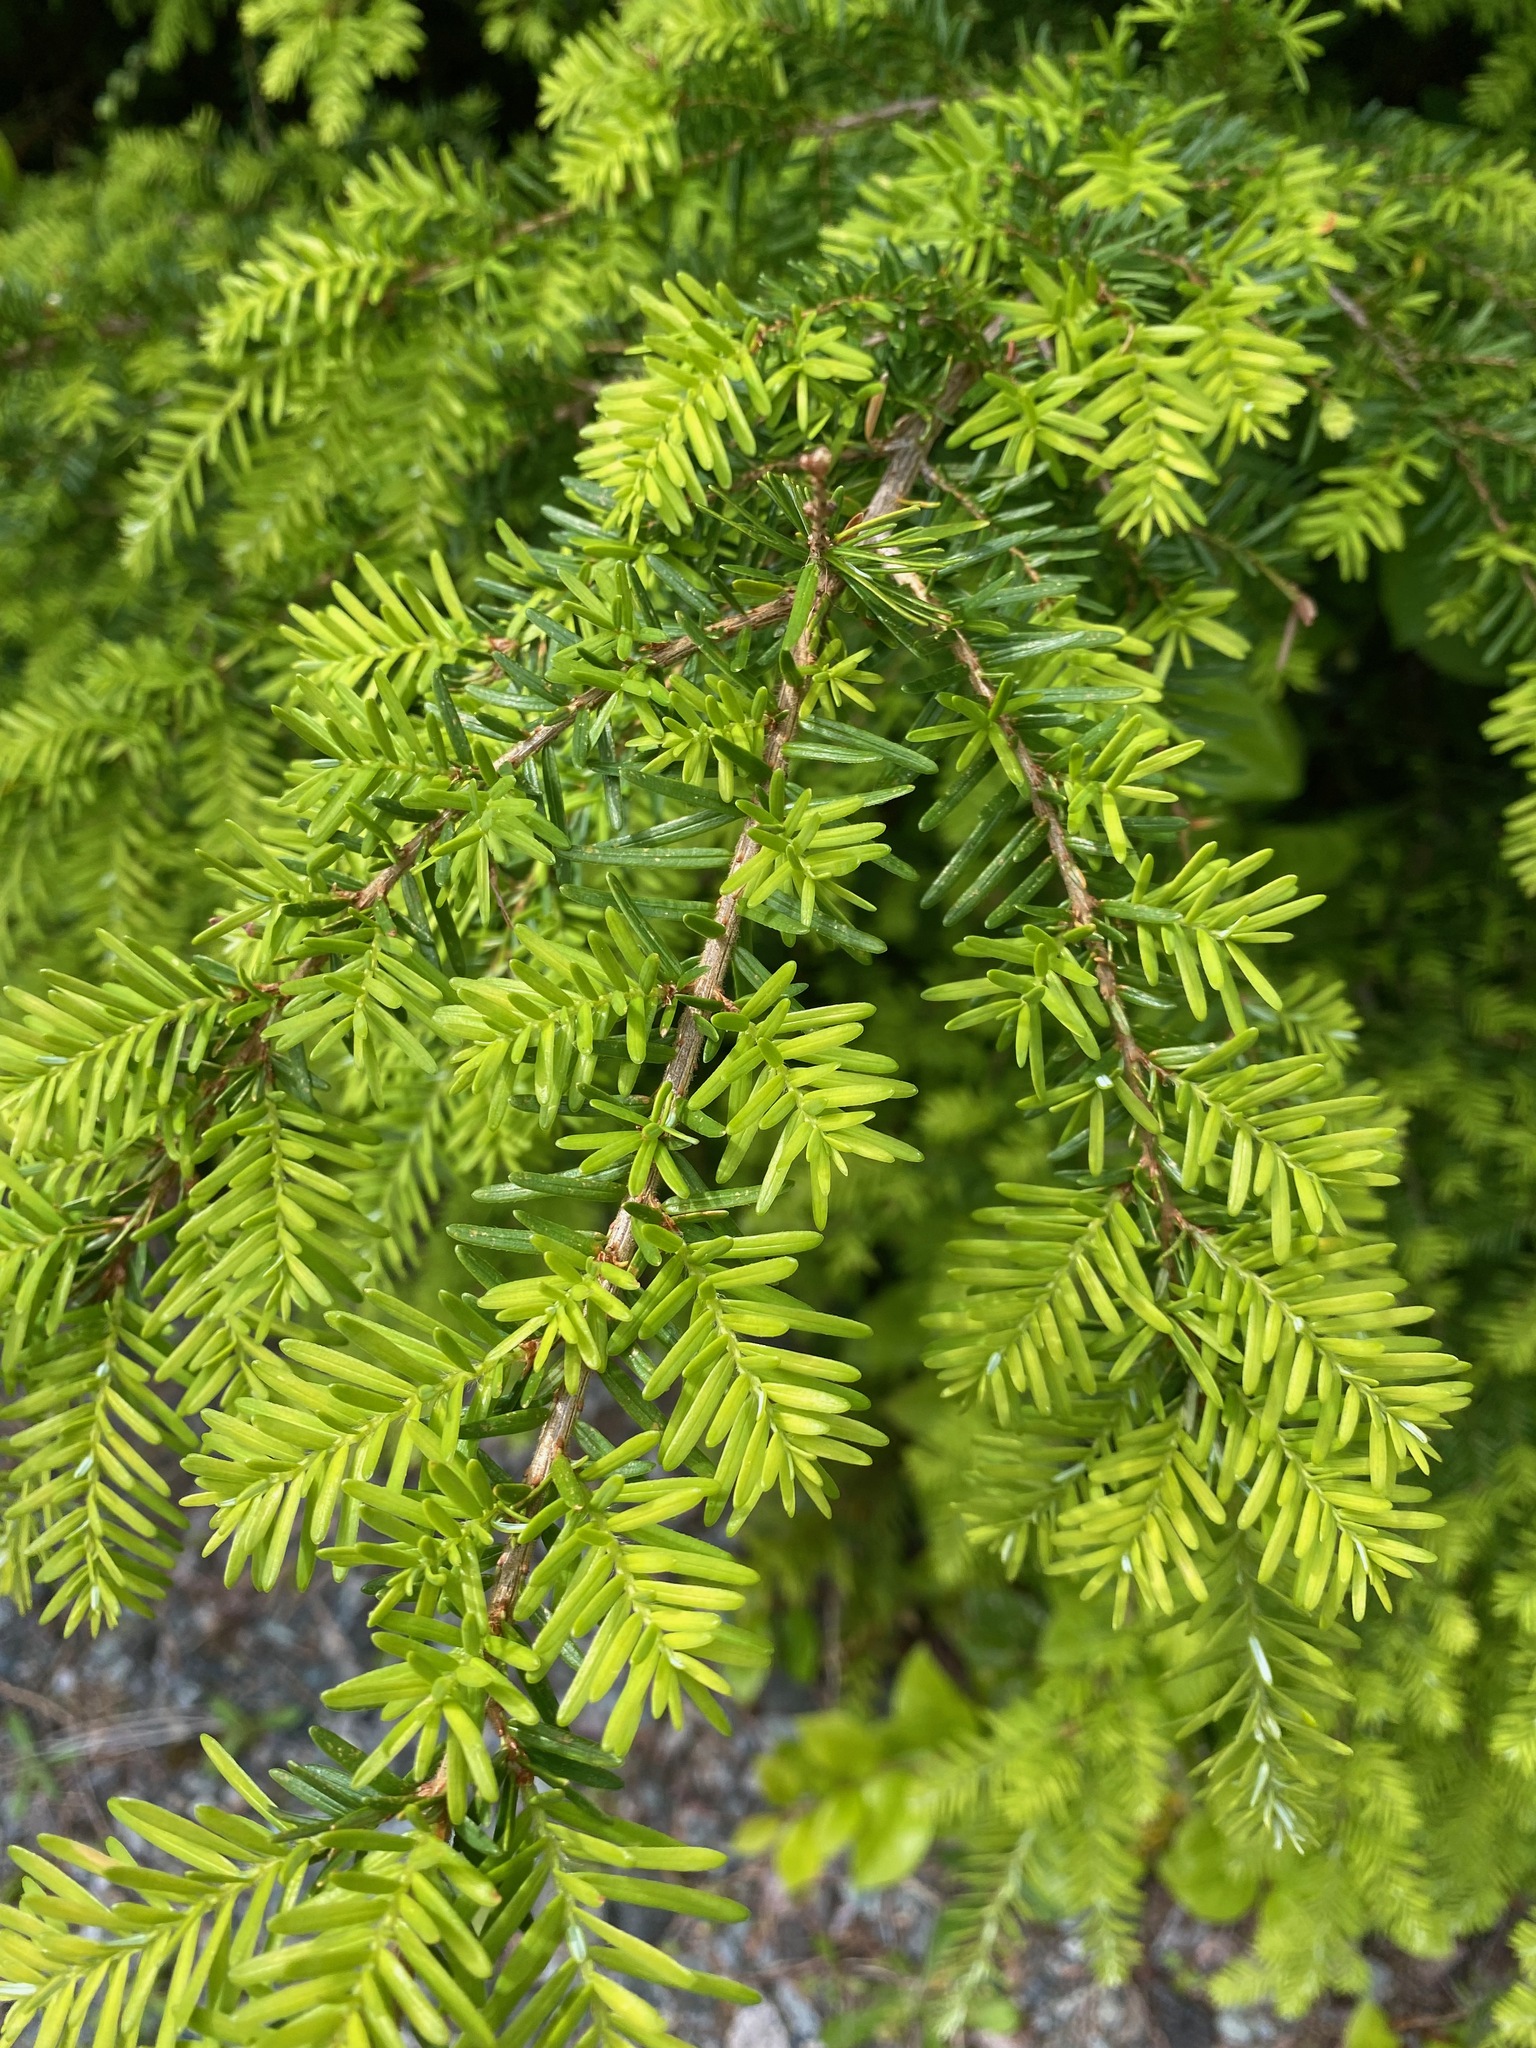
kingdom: Plantae
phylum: Tracheophyta
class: Pinopsida
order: Pinales
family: Pinaceae
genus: Tsuga
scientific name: Tsuga heterophylla
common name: Western hemlock
